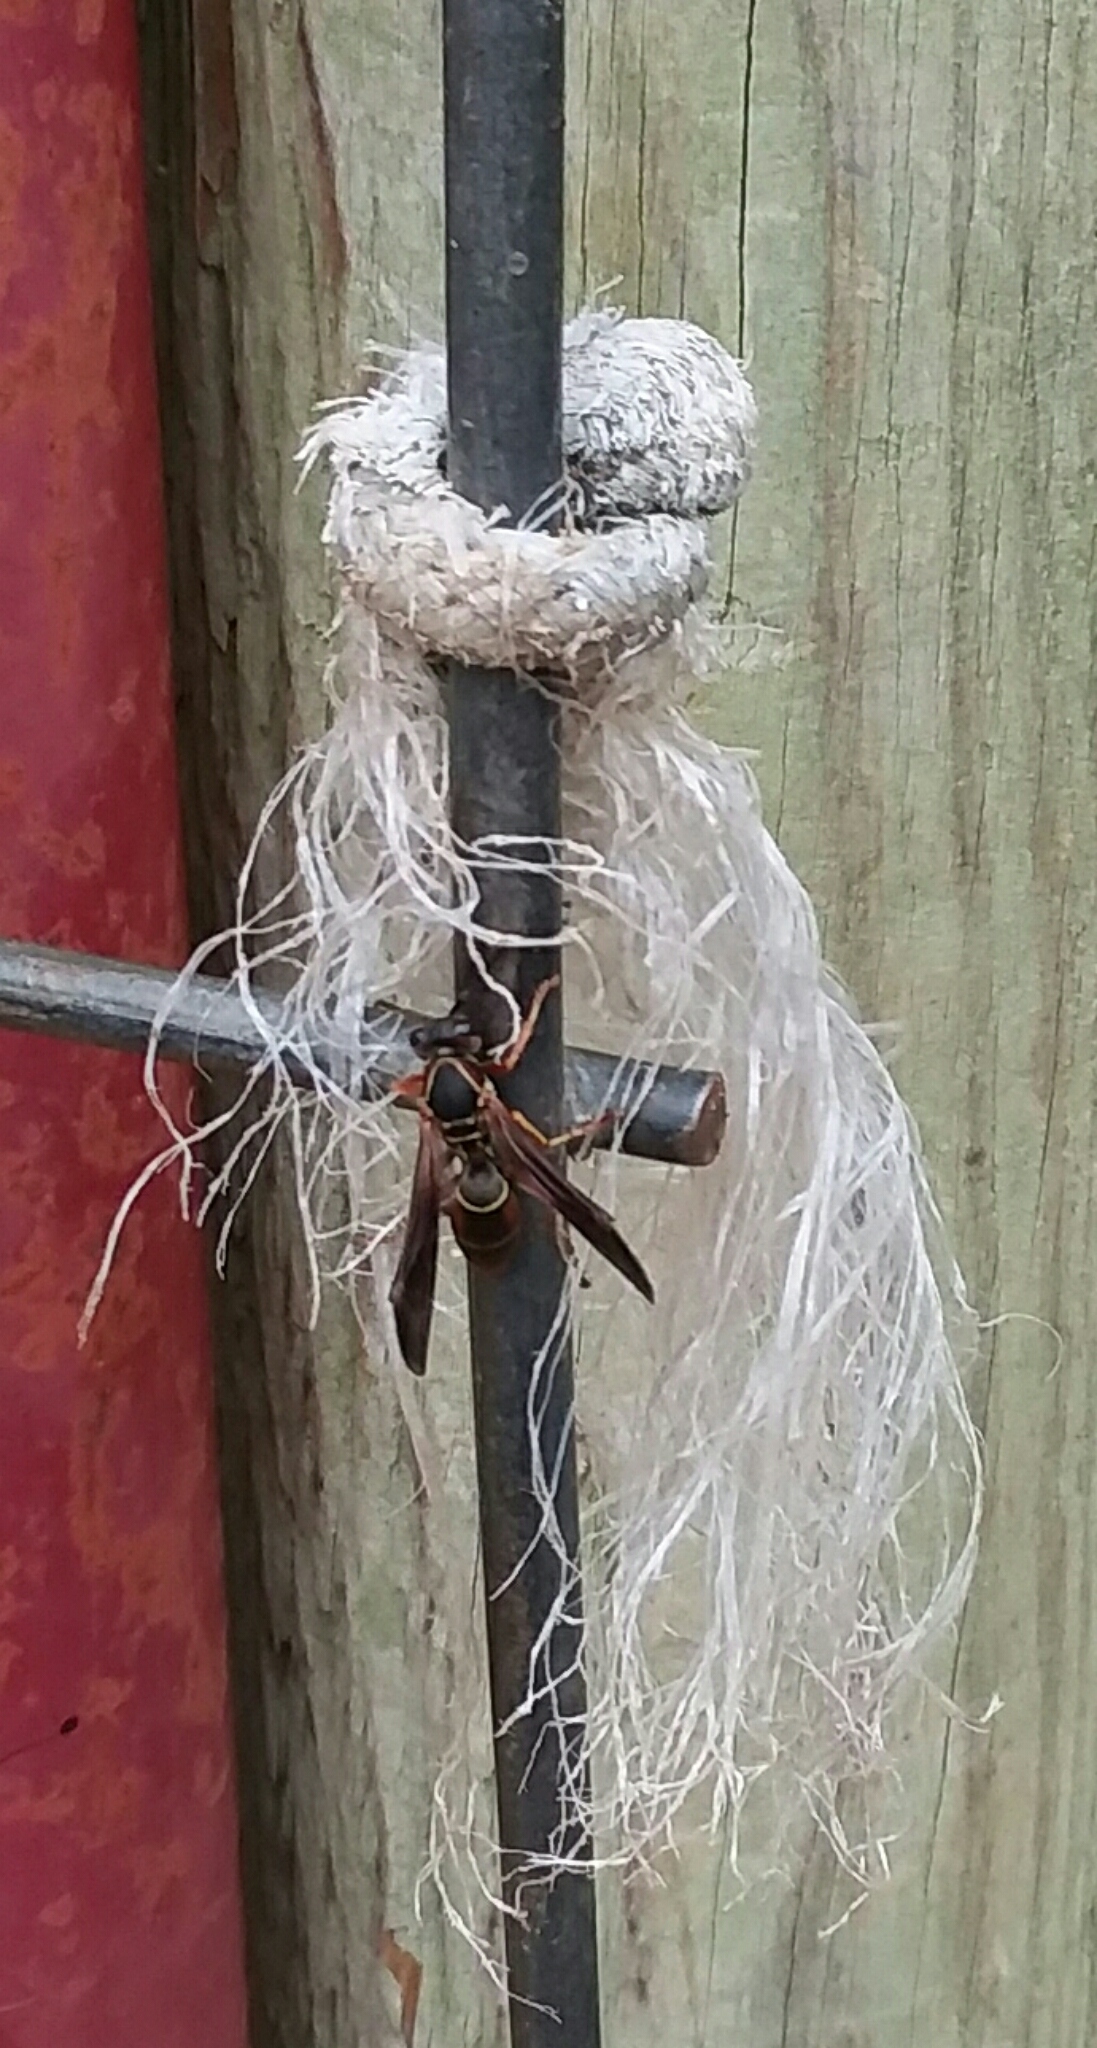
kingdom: Animalia
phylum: Arthropoda
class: Insecta
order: Hymenoptera
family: Eumenidae
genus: Polistes
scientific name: Polistes fuscatus
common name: Dark paper wasp
